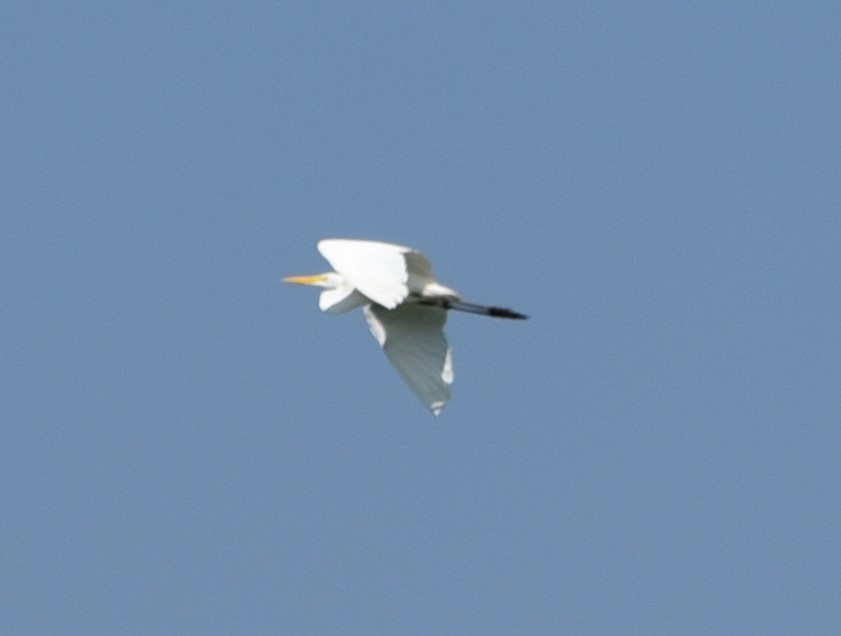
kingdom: Animalia
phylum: Chordata
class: Aves
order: Pelecaniformes
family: Ardeidae
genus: Ardea
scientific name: Ardea alba
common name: Great egret
